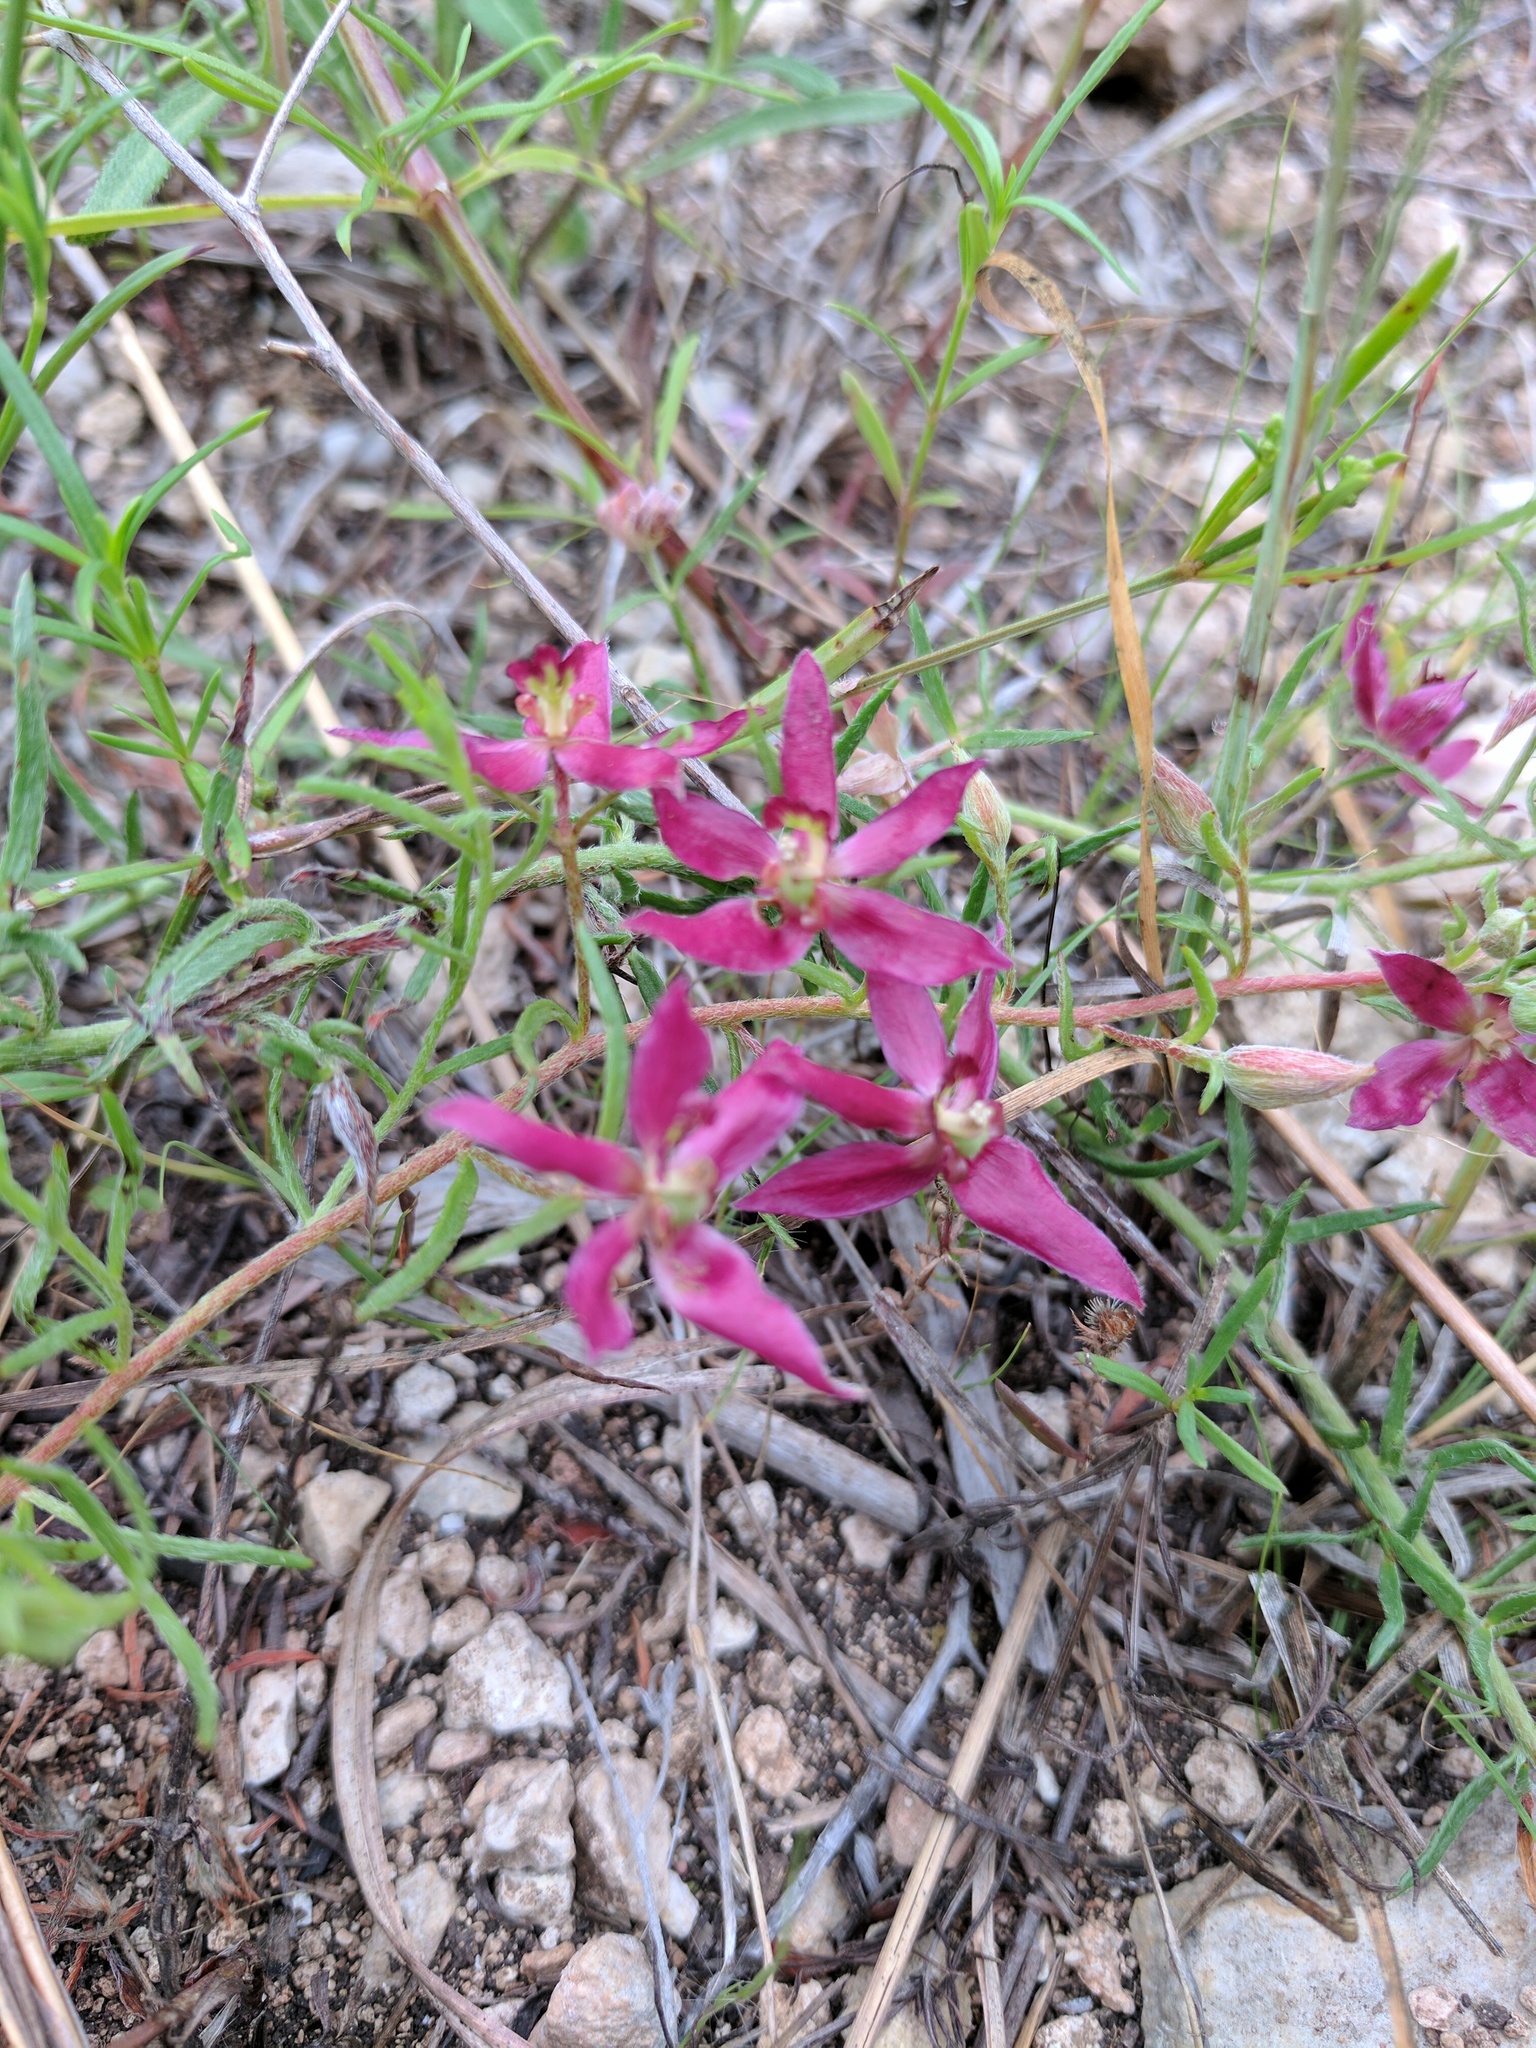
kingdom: Plantae
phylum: Tracheophyta
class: Magnoliopsida
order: Zygophyllales
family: Krameriaceae
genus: Krameria
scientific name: Krameria lanceolata
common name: Ratany
